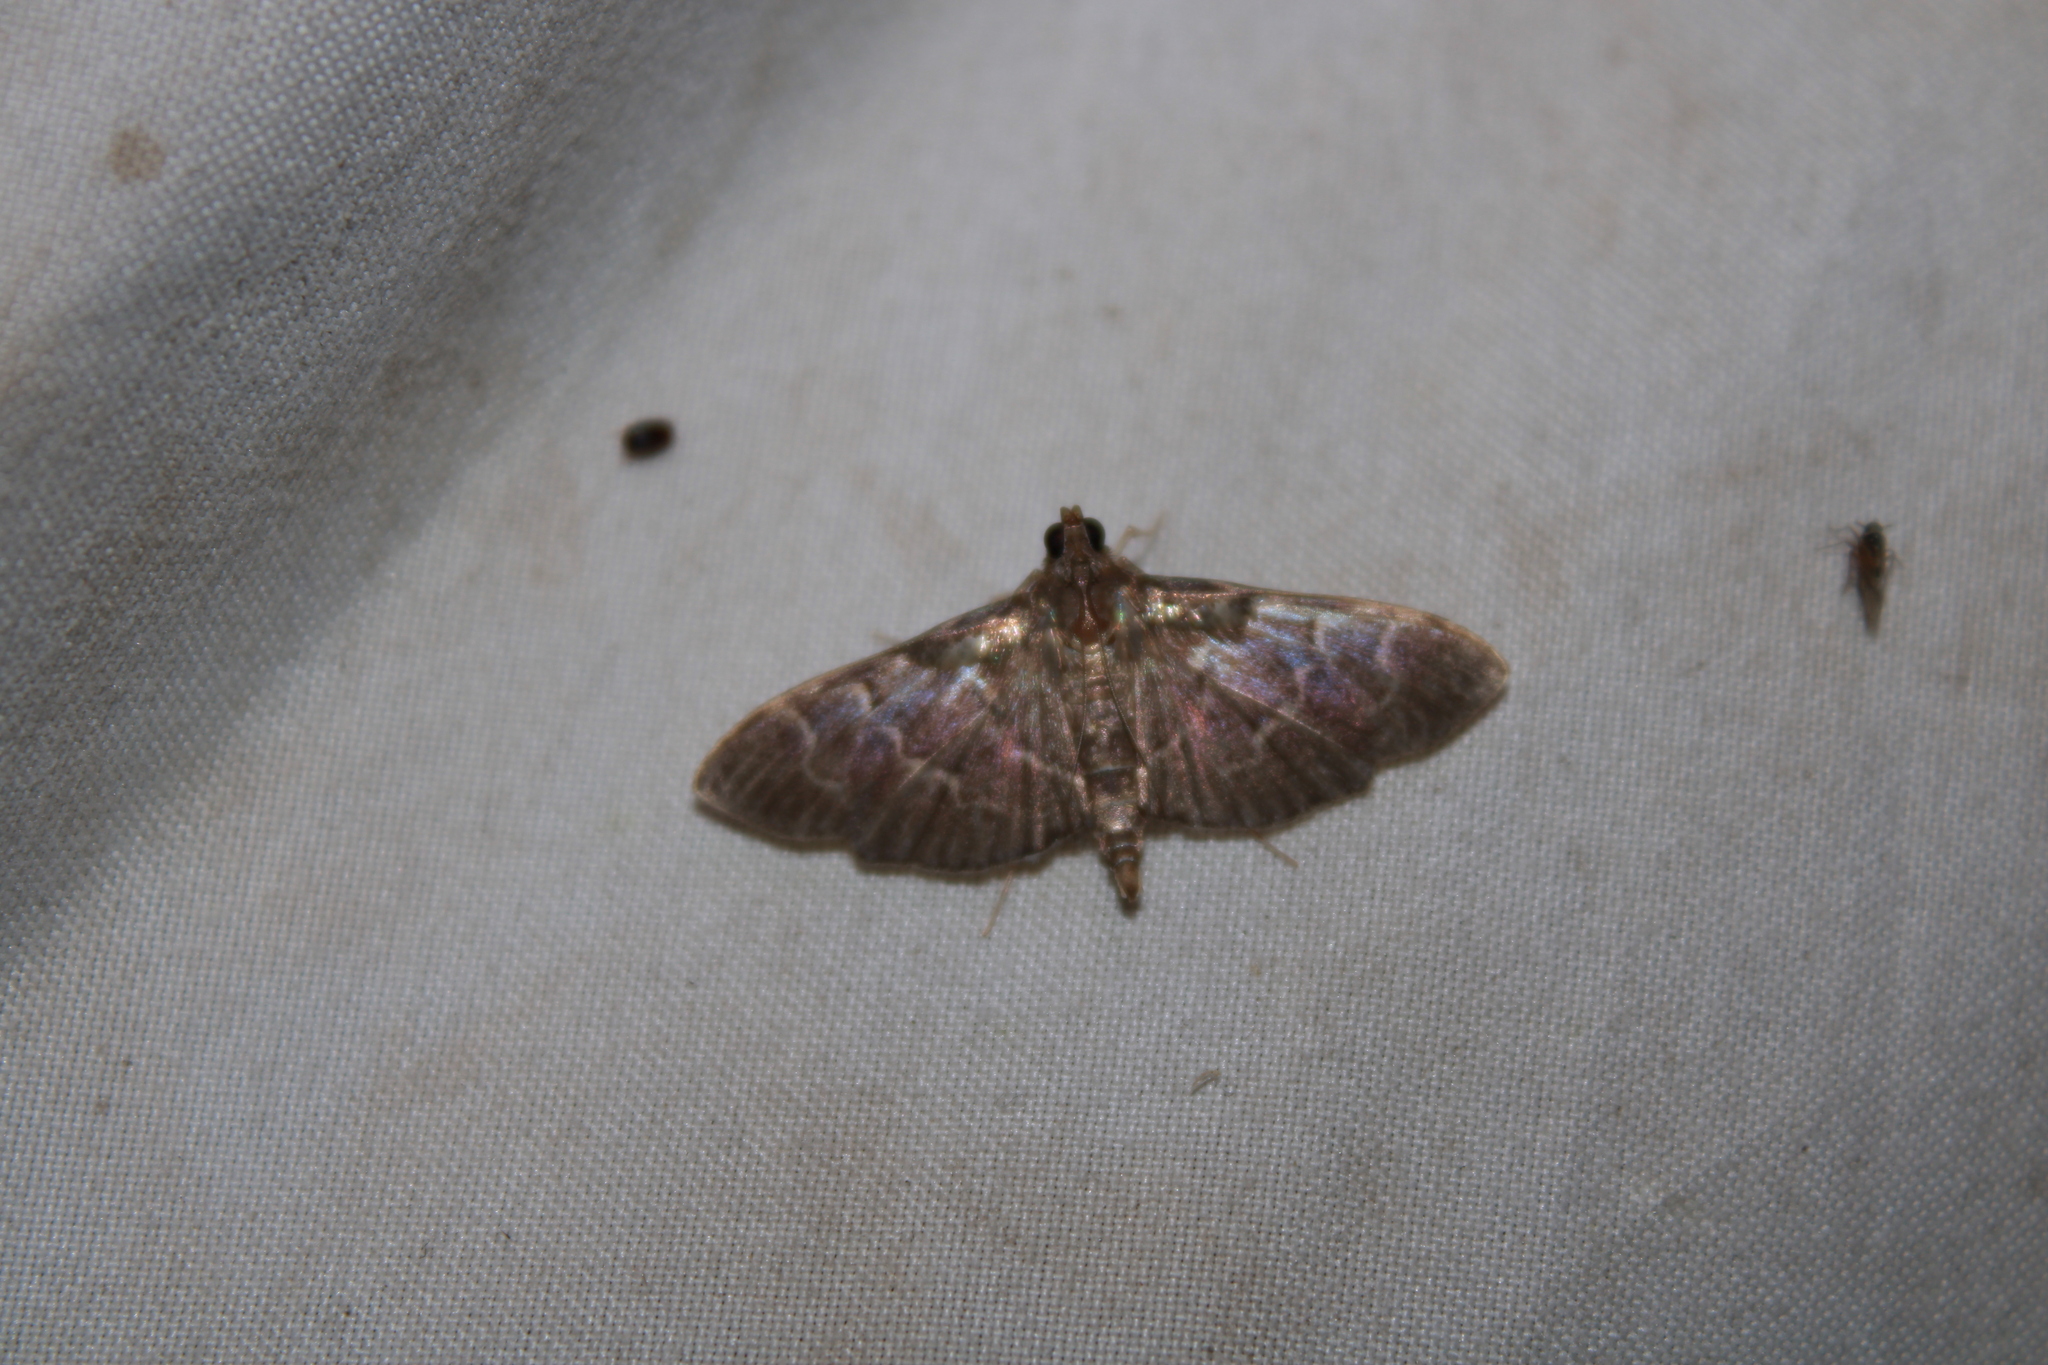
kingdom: Animalia
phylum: Arthropoda
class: Insecta
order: Lepidoptera
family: Crambidae
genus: Pilocrocis
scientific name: Pilocrocis ramentalis
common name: Scraped pilocrocis
